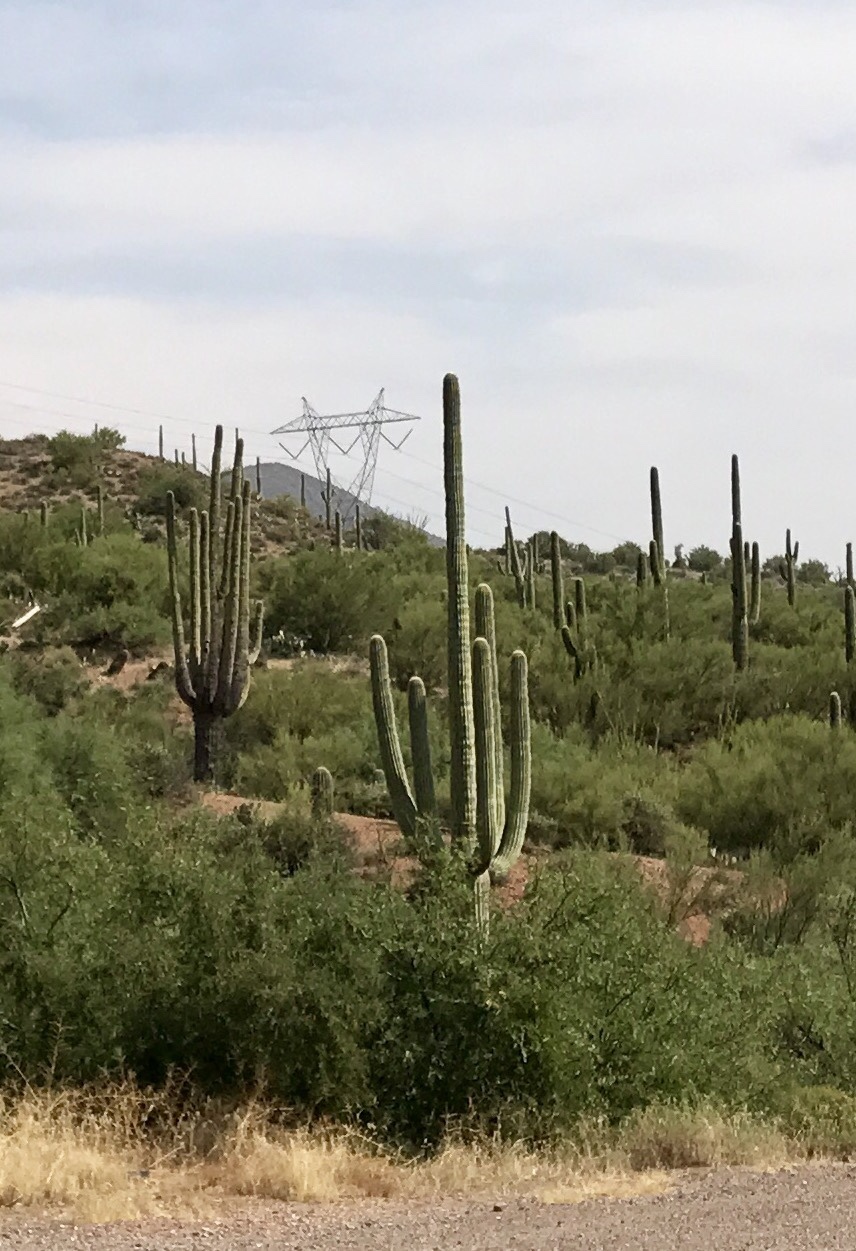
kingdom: Plantae
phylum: Tracheophyta
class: Magnoliopsida
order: Caryophyllales
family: Cactaceae
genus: Carnegiea
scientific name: Carnegiea gigantea
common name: Saguaro
